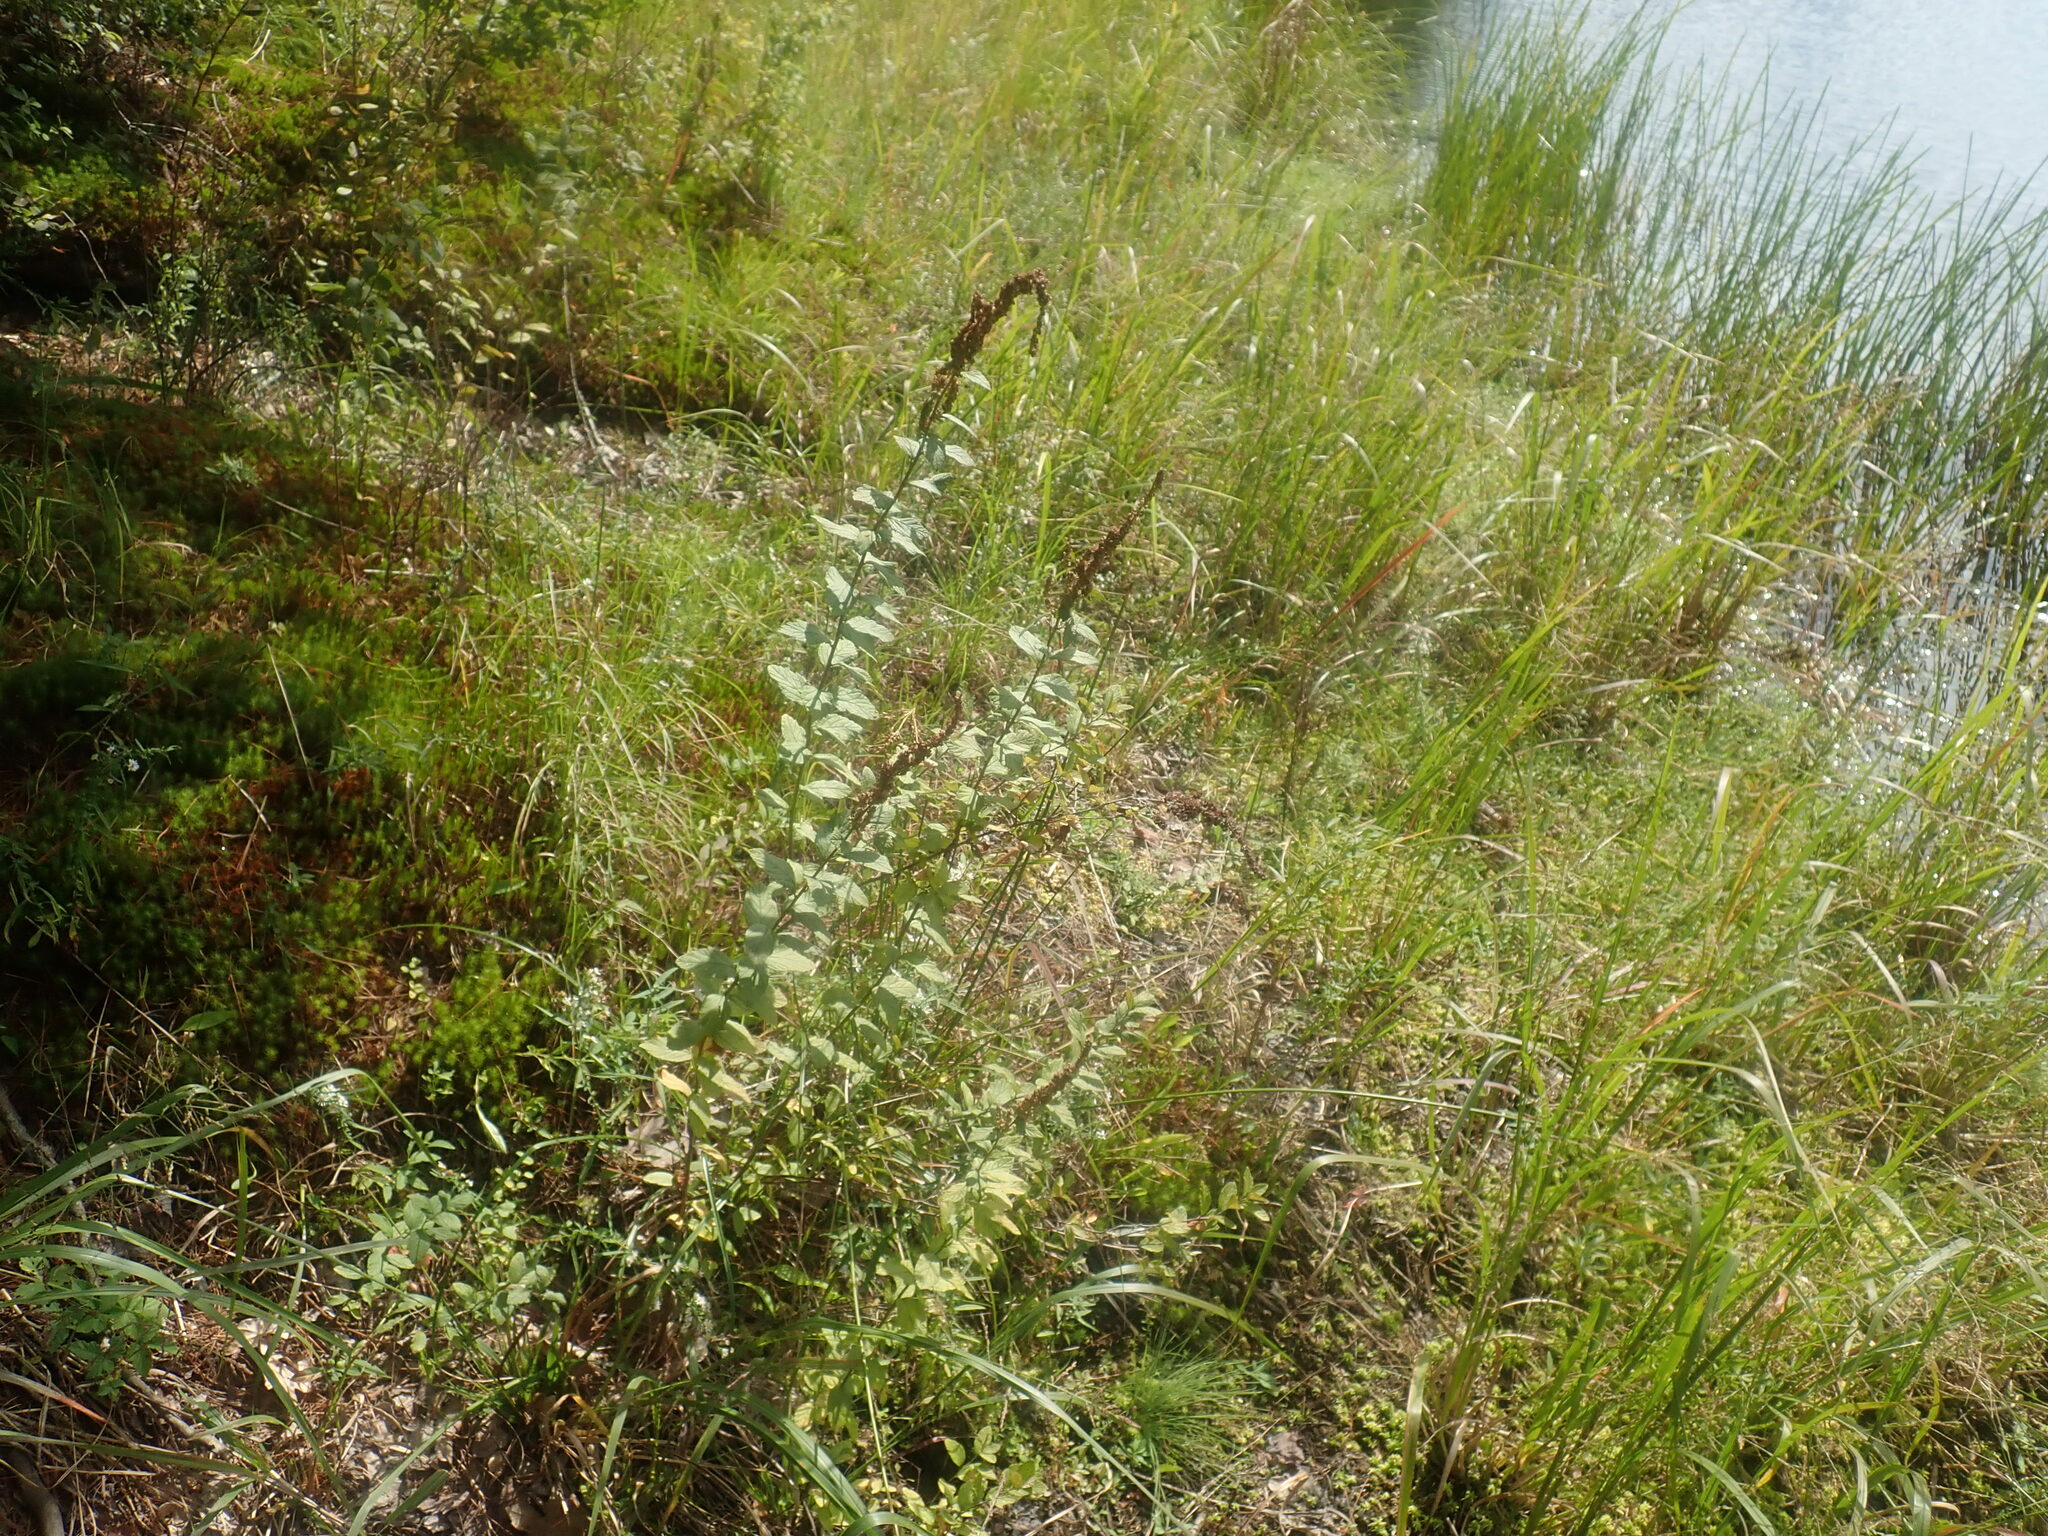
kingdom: Plantae
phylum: Tracheophyta
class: Magnoliopsida
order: Rosales
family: Rosaceae
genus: Spiraea
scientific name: Spiraea tomentosa
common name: Hardhack
